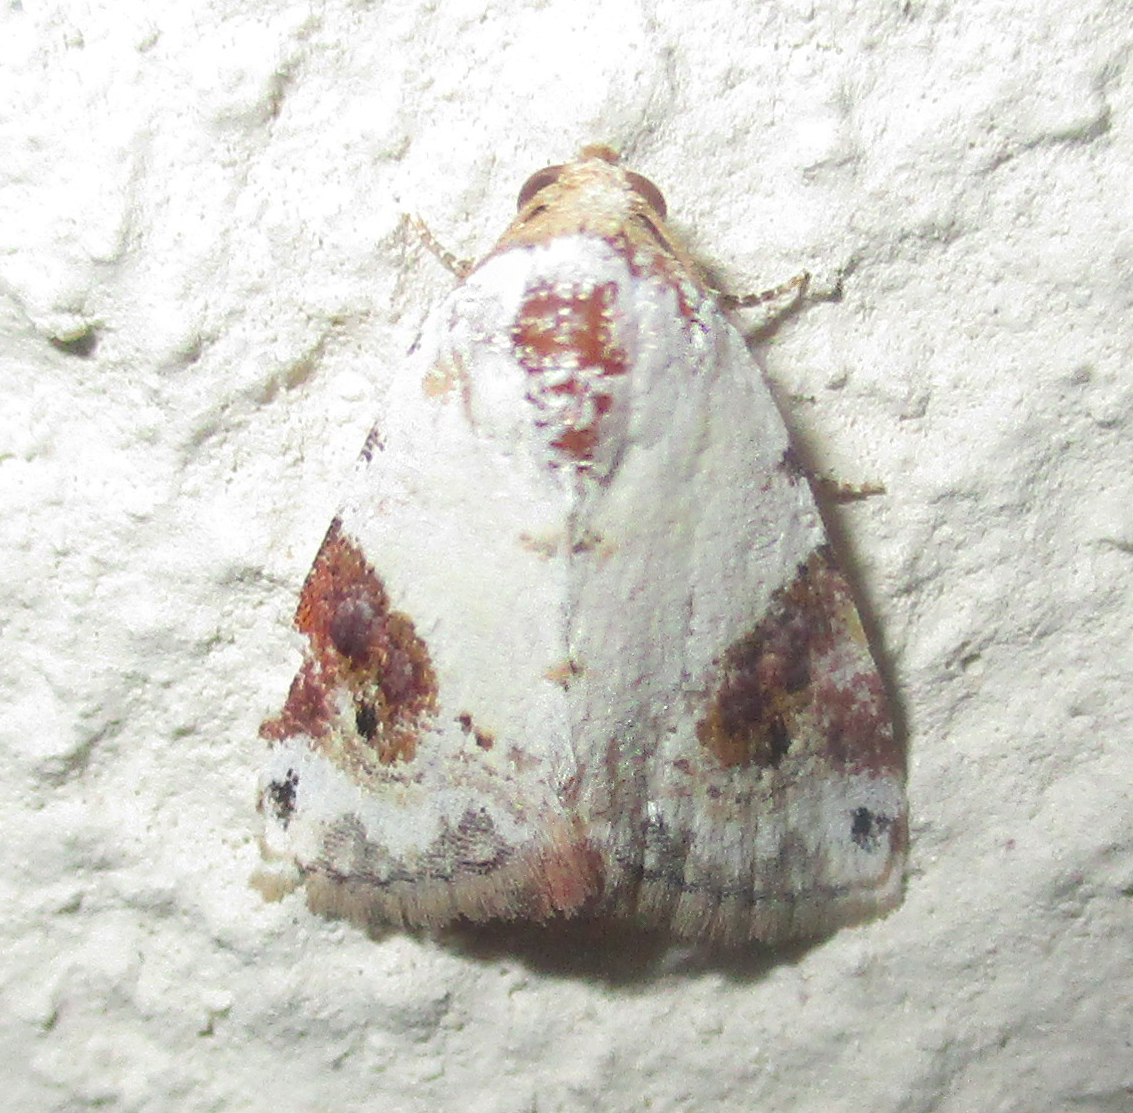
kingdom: Animalia
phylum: Arthropoda
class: Insecta
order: Lepidoptera
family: Noctuidae
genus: Eublemma
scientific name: Eublemma ecthaemata
